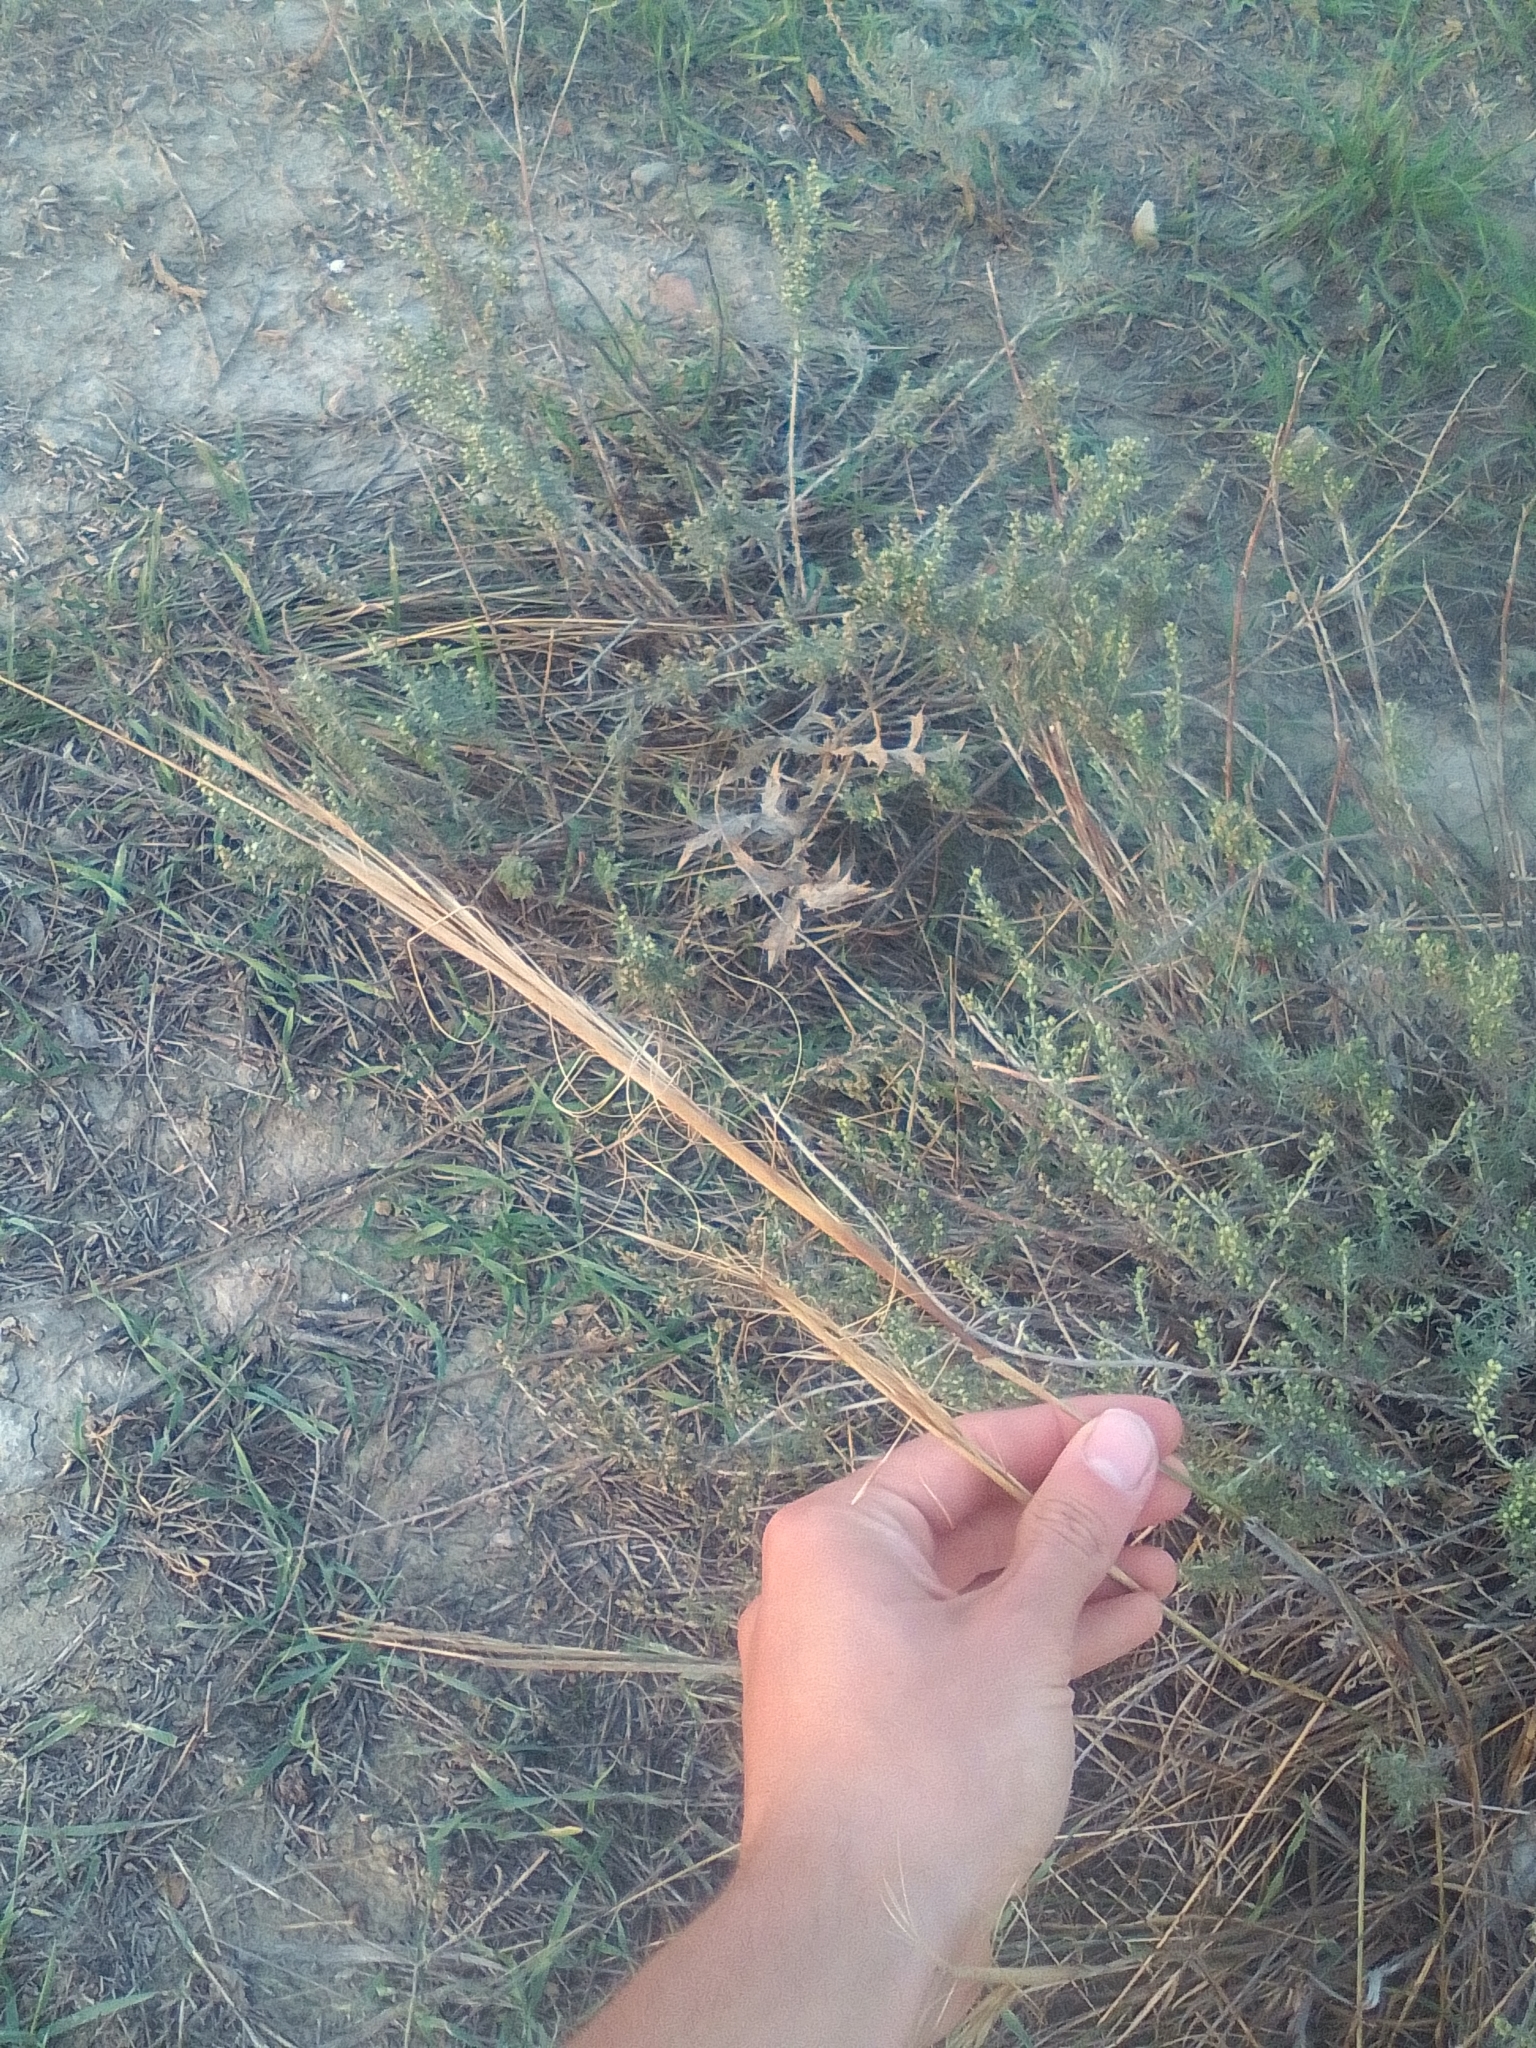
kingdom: Plantae
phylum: Tracheophyta
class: Liliopsida
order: Poales
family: Poaceae
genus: Stipa
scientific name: Stipa capillata
